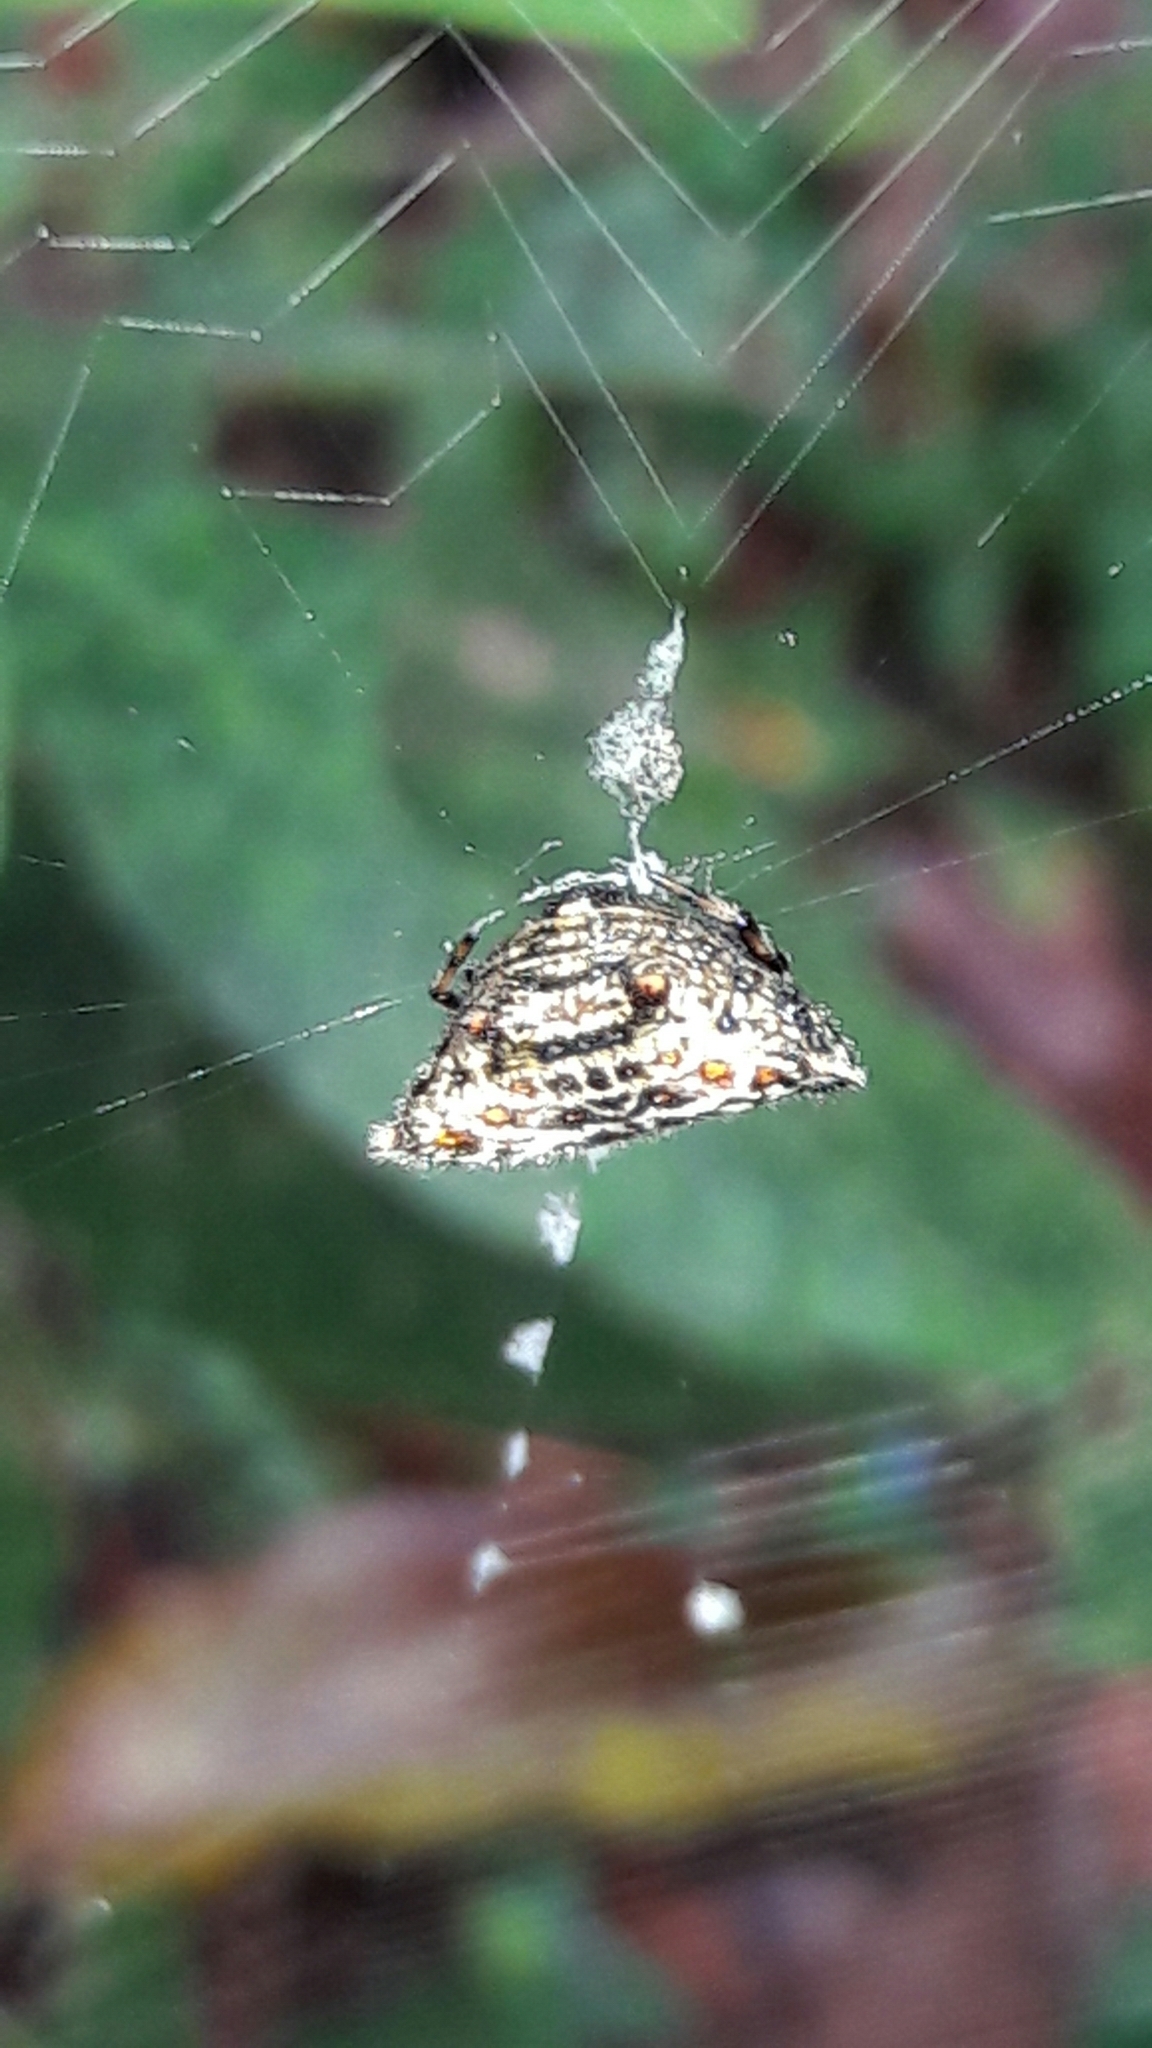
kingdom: Animalia
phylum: Arthropoda
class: Arachnida
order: Araneae
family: Araneidae
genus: Gasteracantha
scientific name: Gasteracantha cancriformis
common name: Orb weavers
